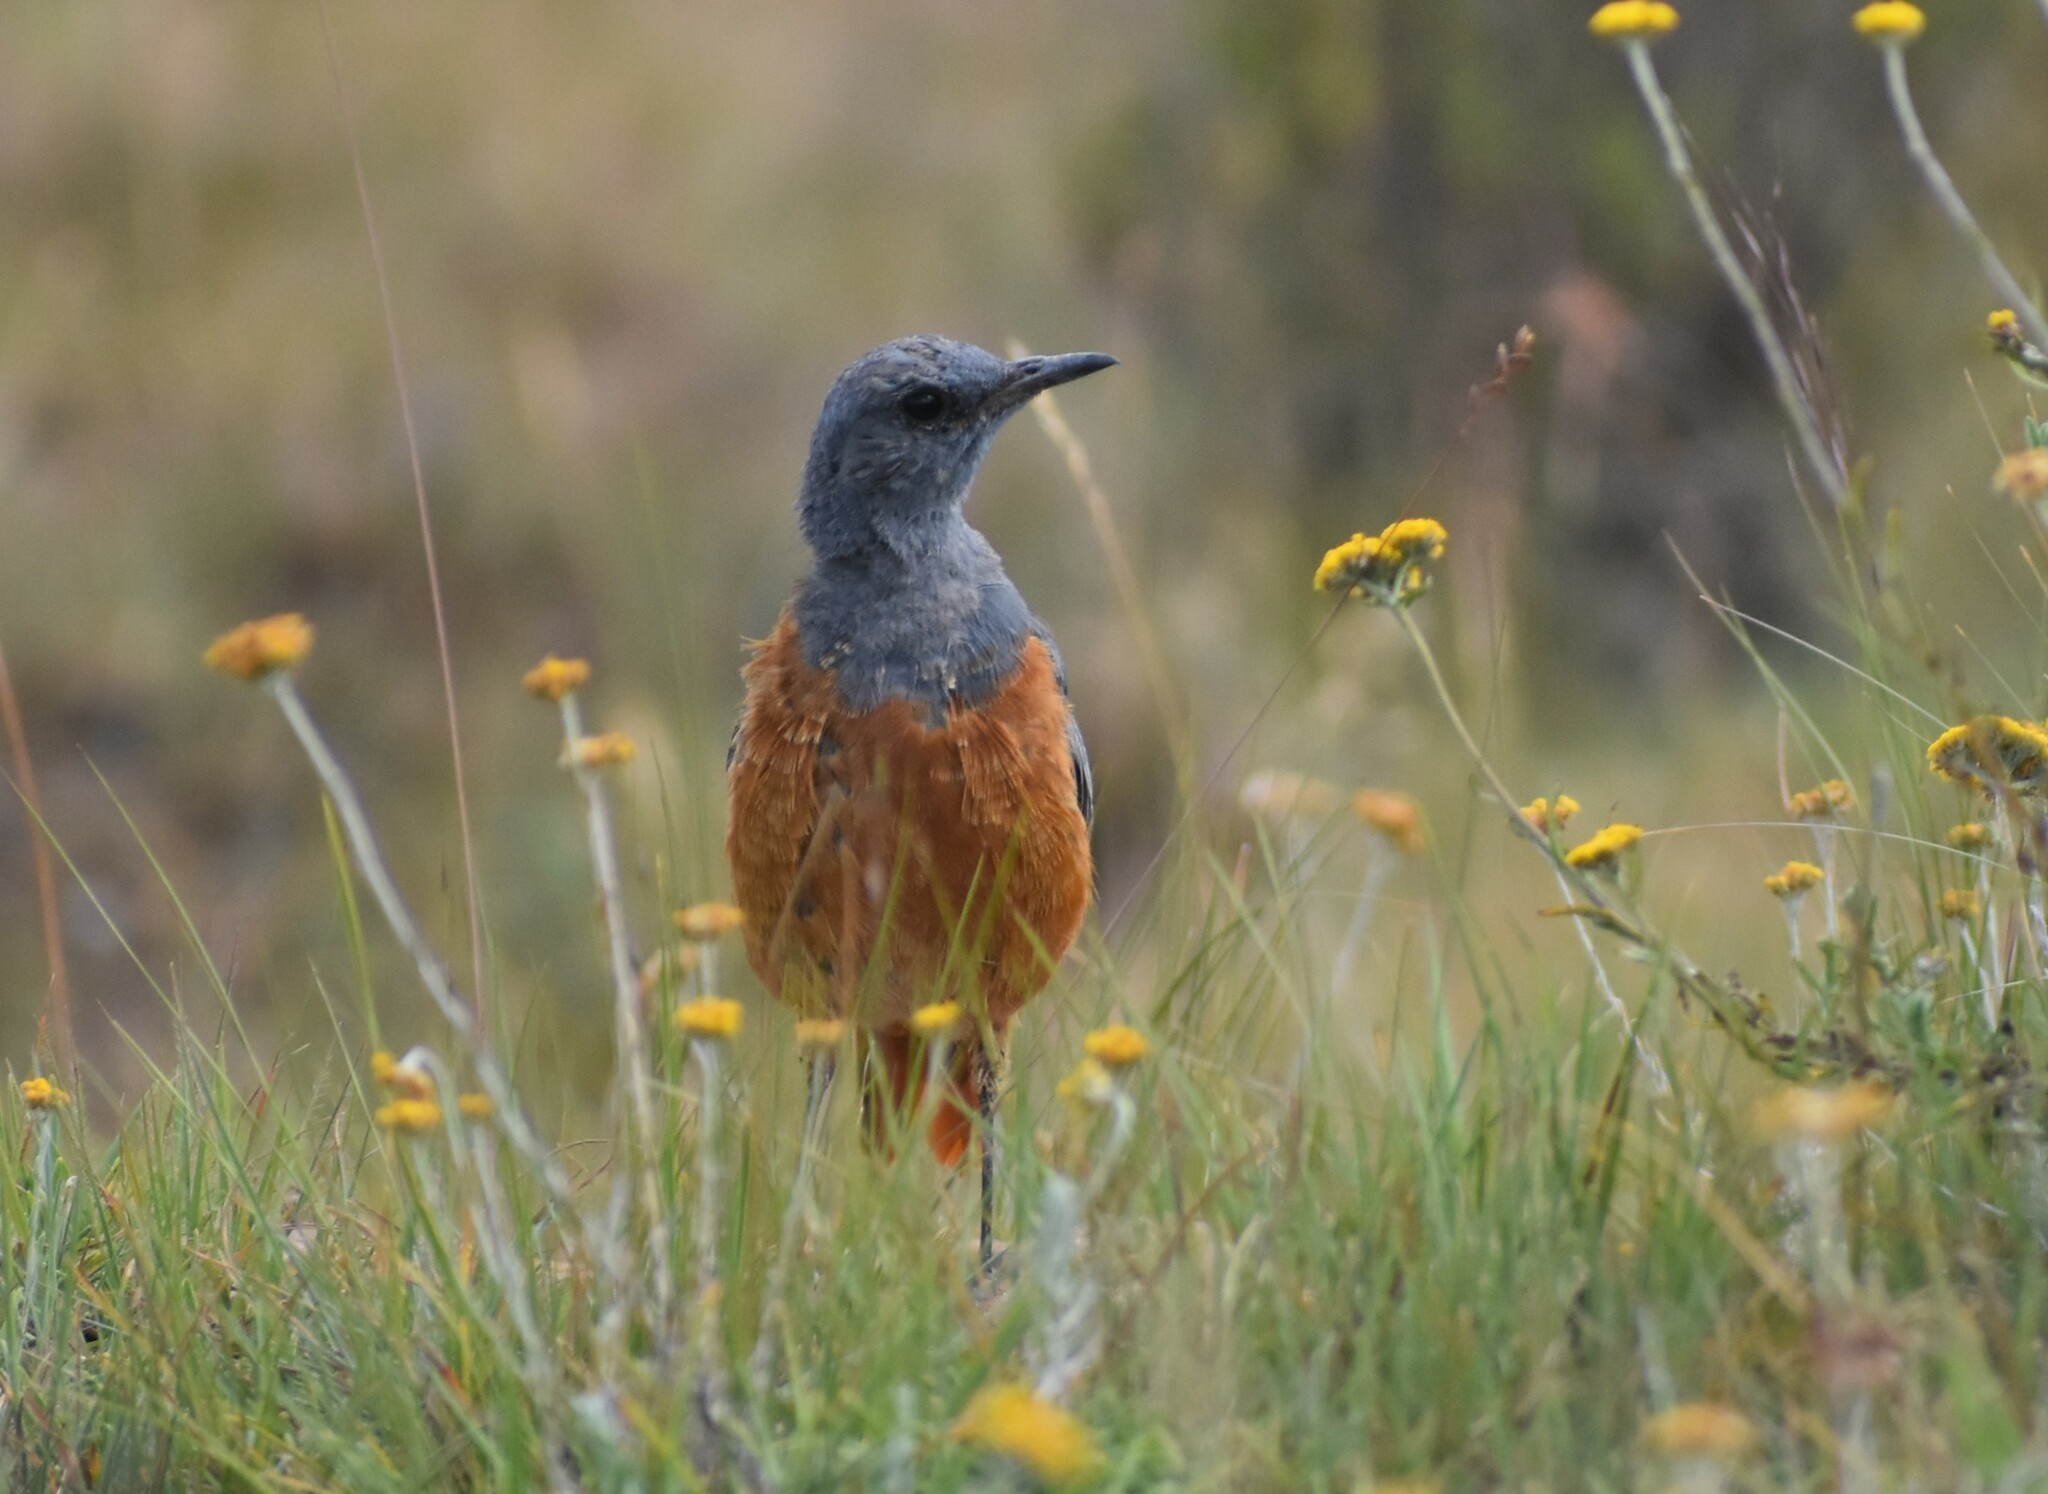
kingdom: Animalia
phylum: Chordata
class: Aves
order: Passeriformes
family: Muscicapidae
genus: Monticola
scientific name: Monticola explorator
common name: Sentinel rock thrush
